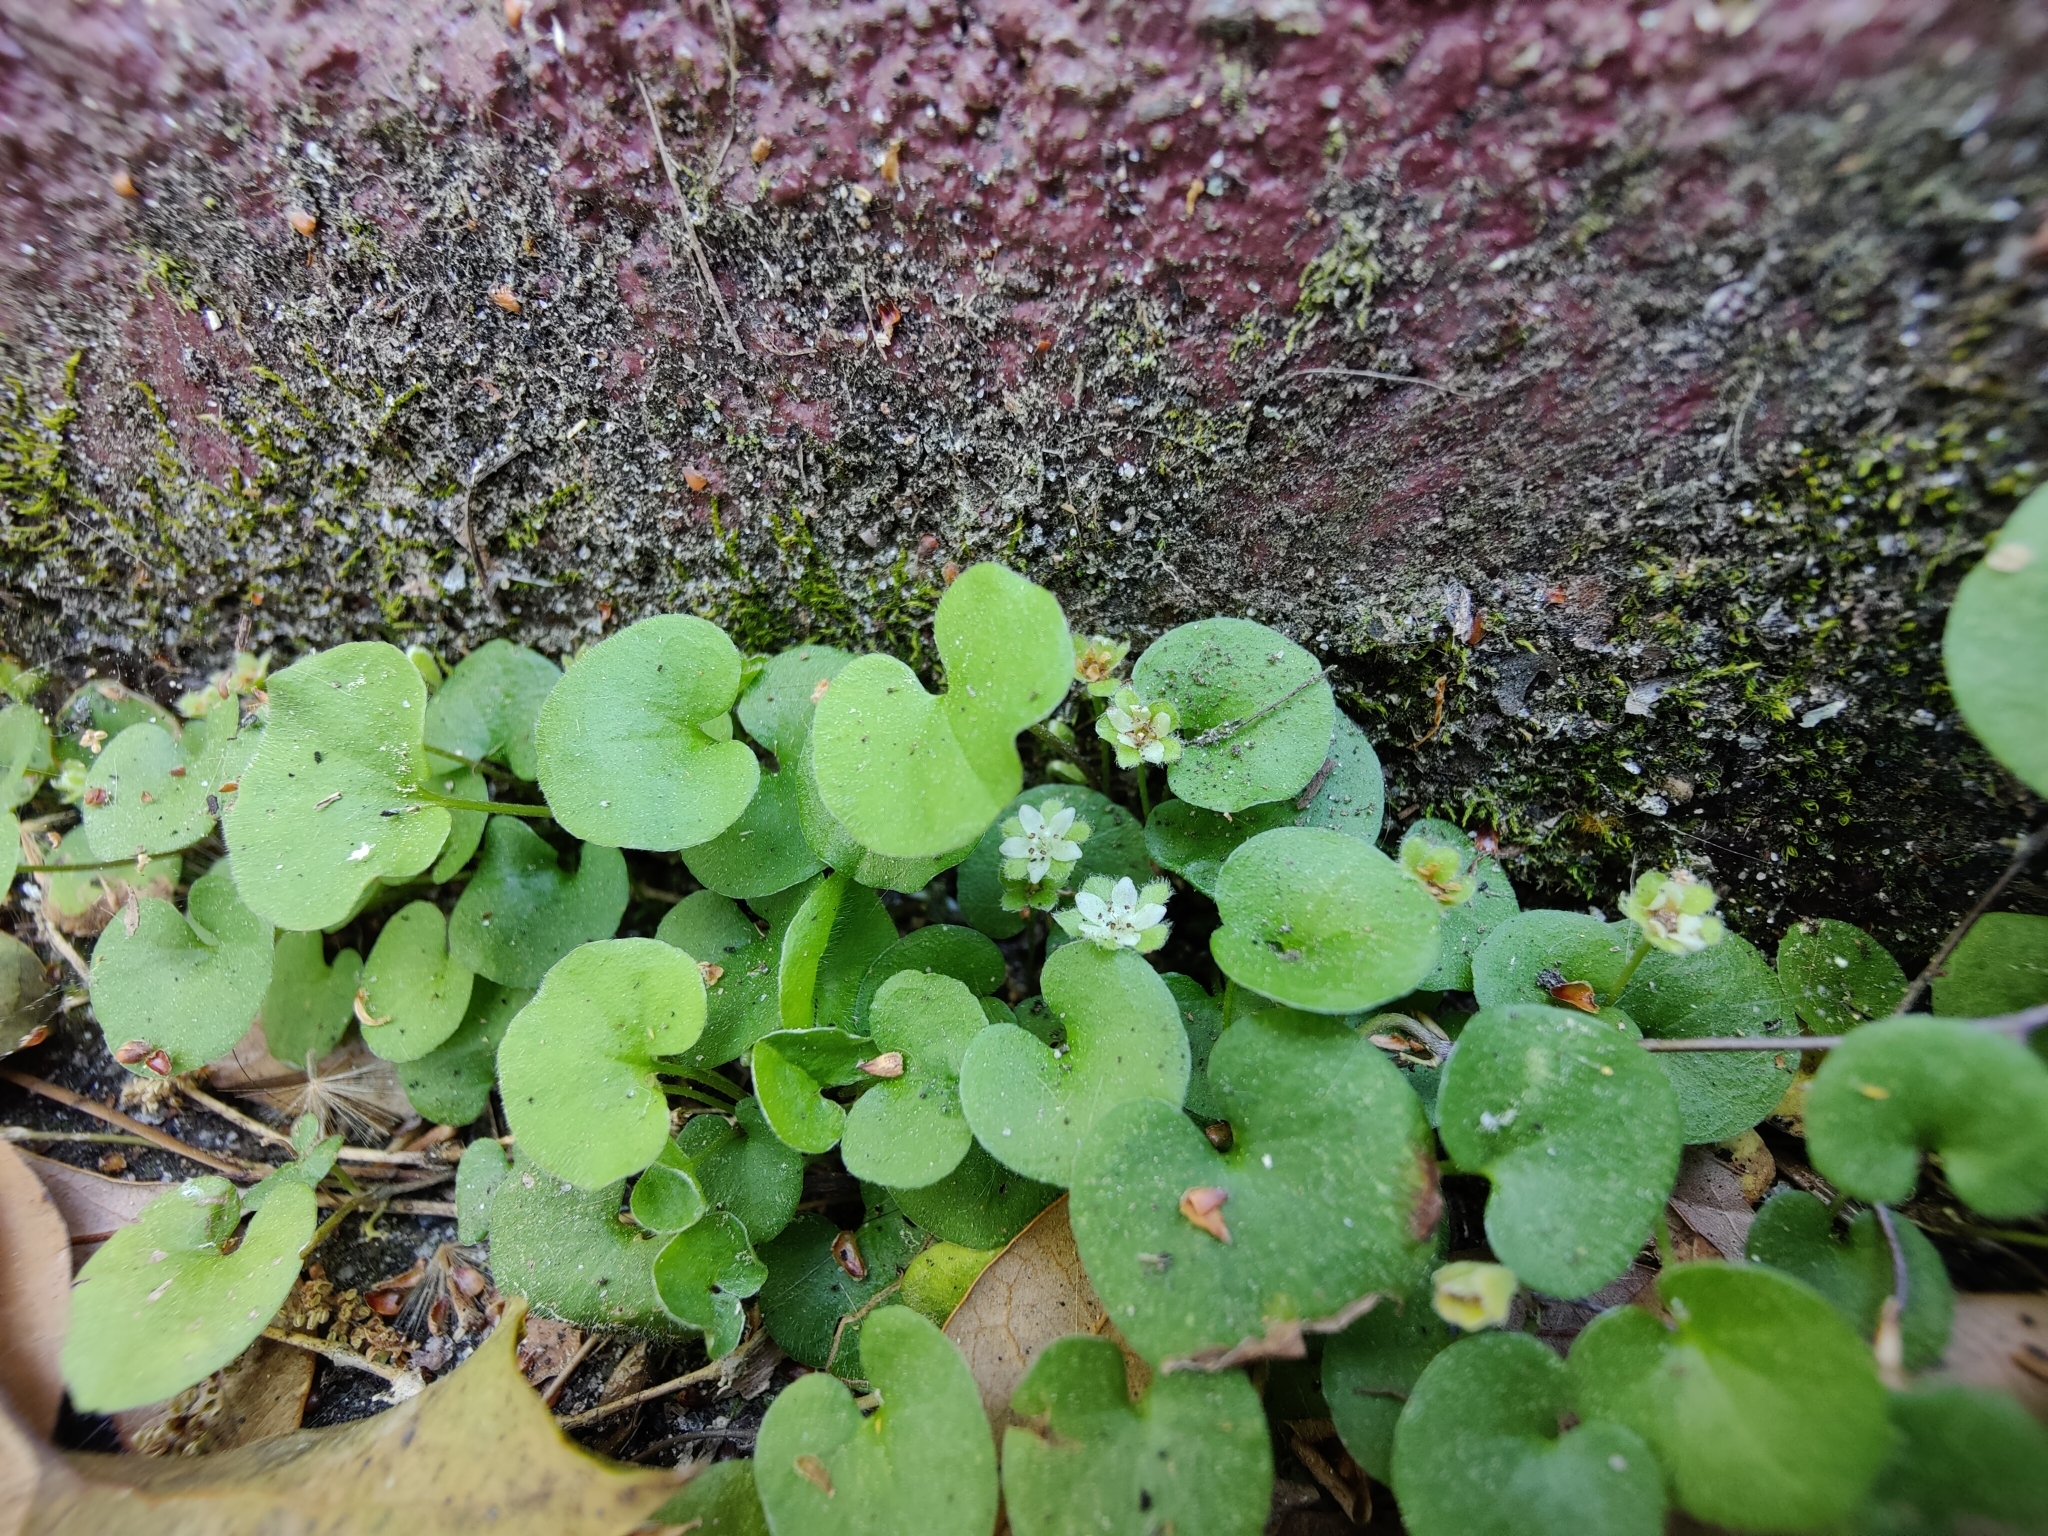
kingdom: Plantae
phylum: Tracheophyta
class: Magnoliopsida
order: Solanales
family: Convolvulaceae
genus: Dichondra
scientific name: Dichondra carolinensis
